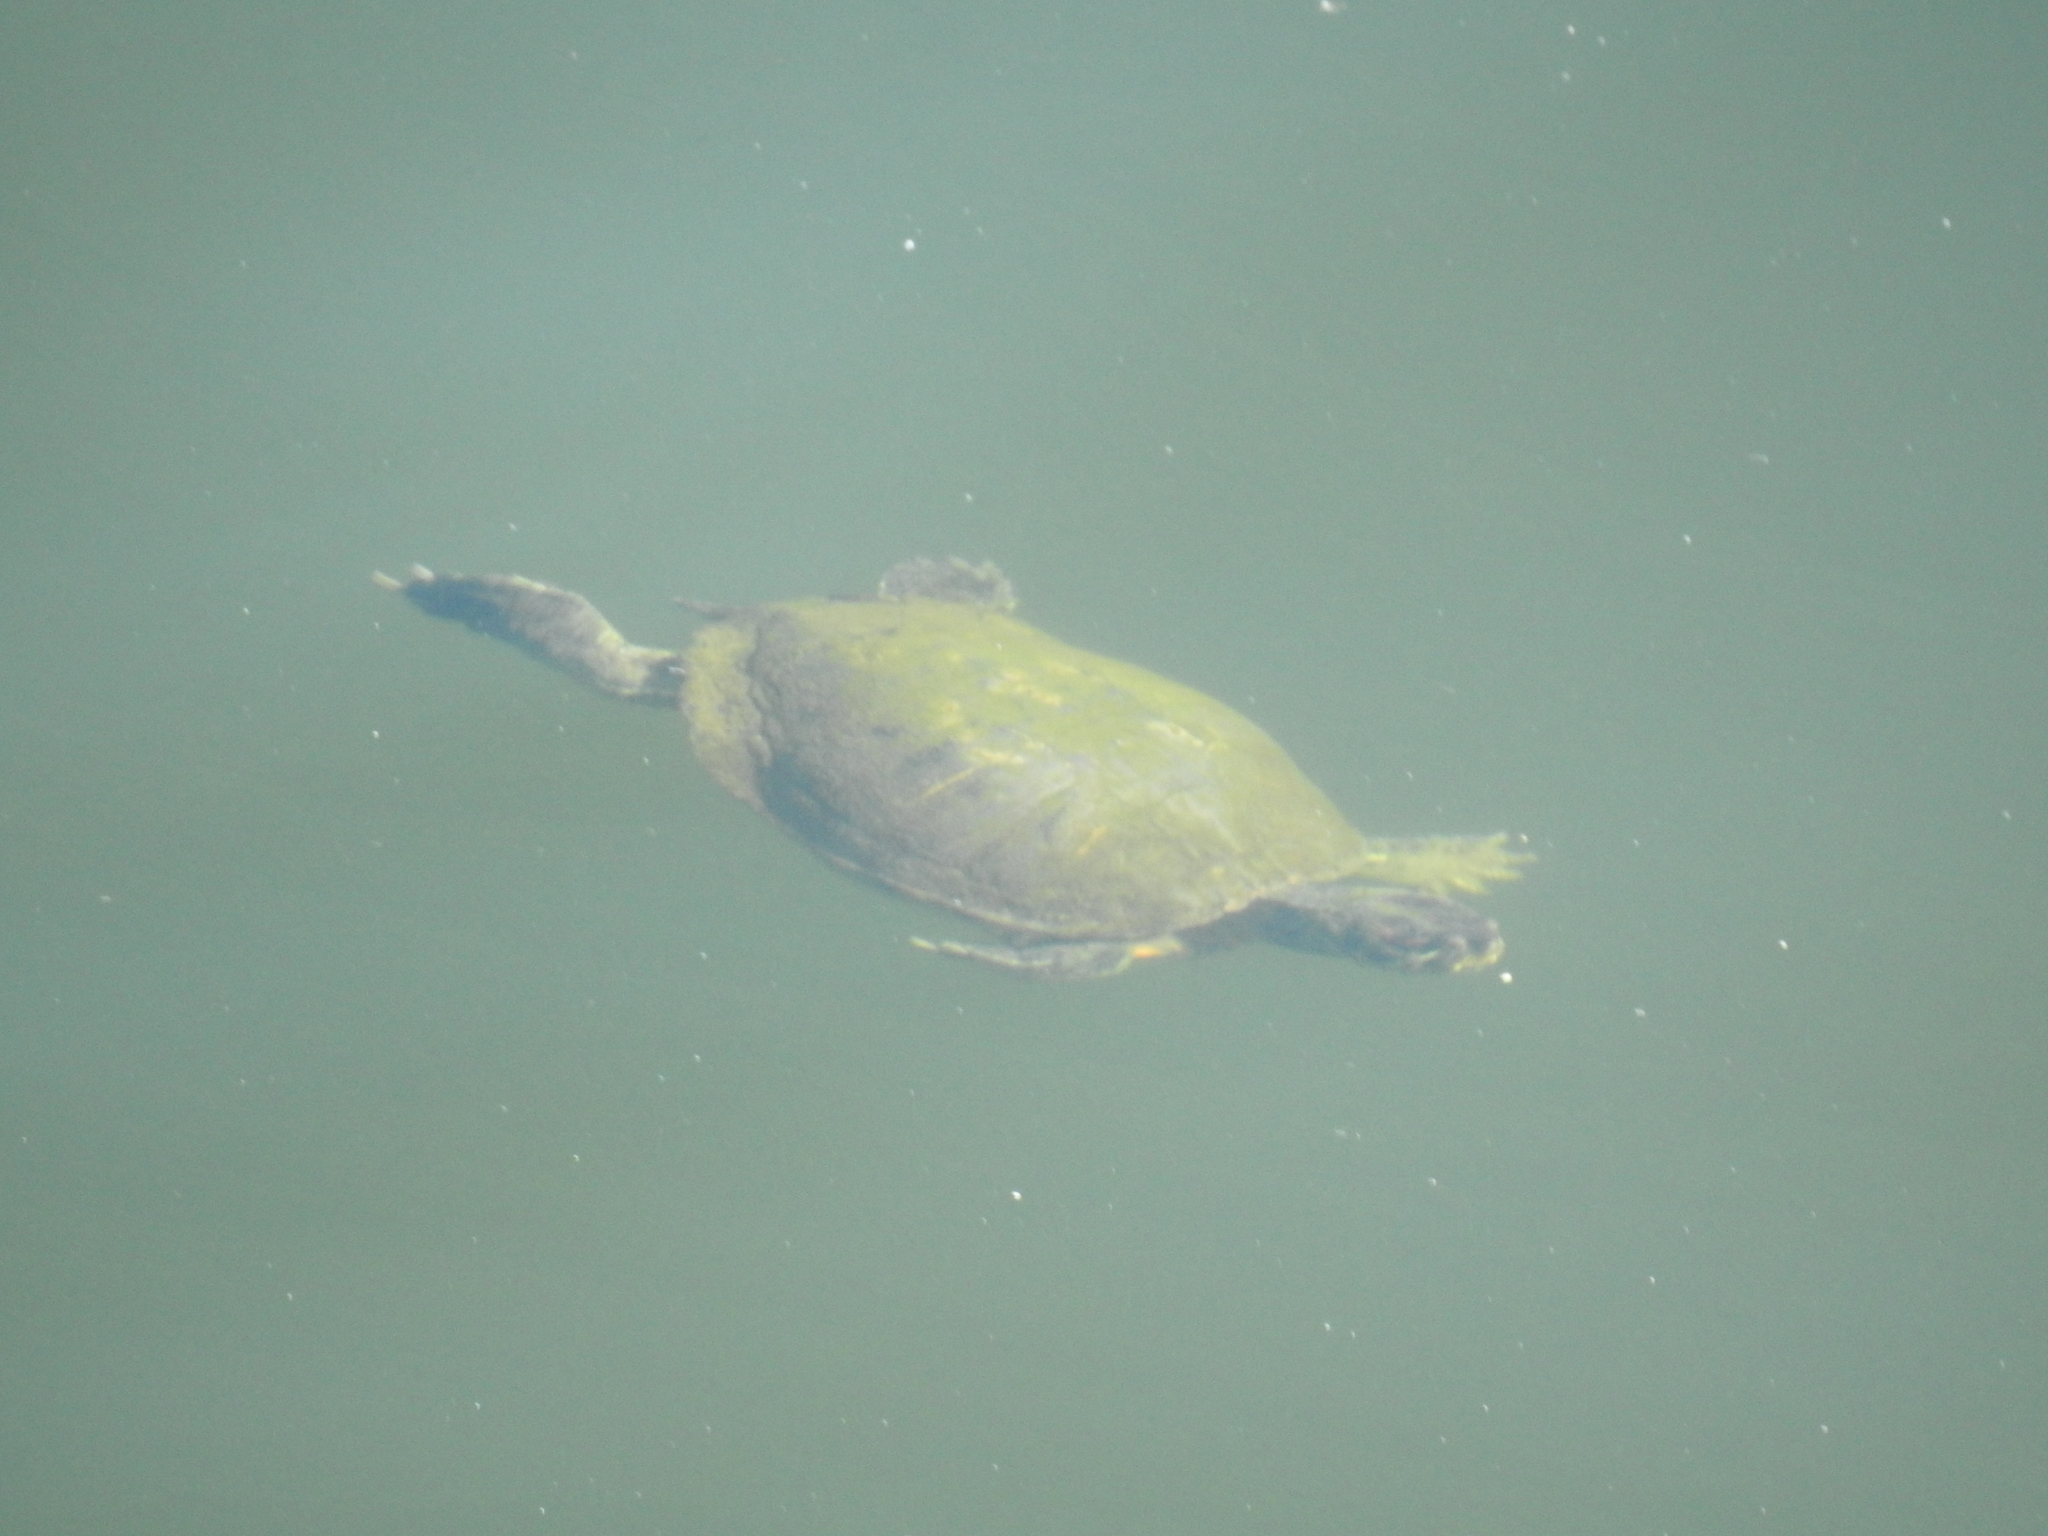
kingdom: Animalia
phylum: Chordata
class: Testudines
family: Emydidae
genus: Trachemys
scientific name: Trachemys scripta
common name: Slider
